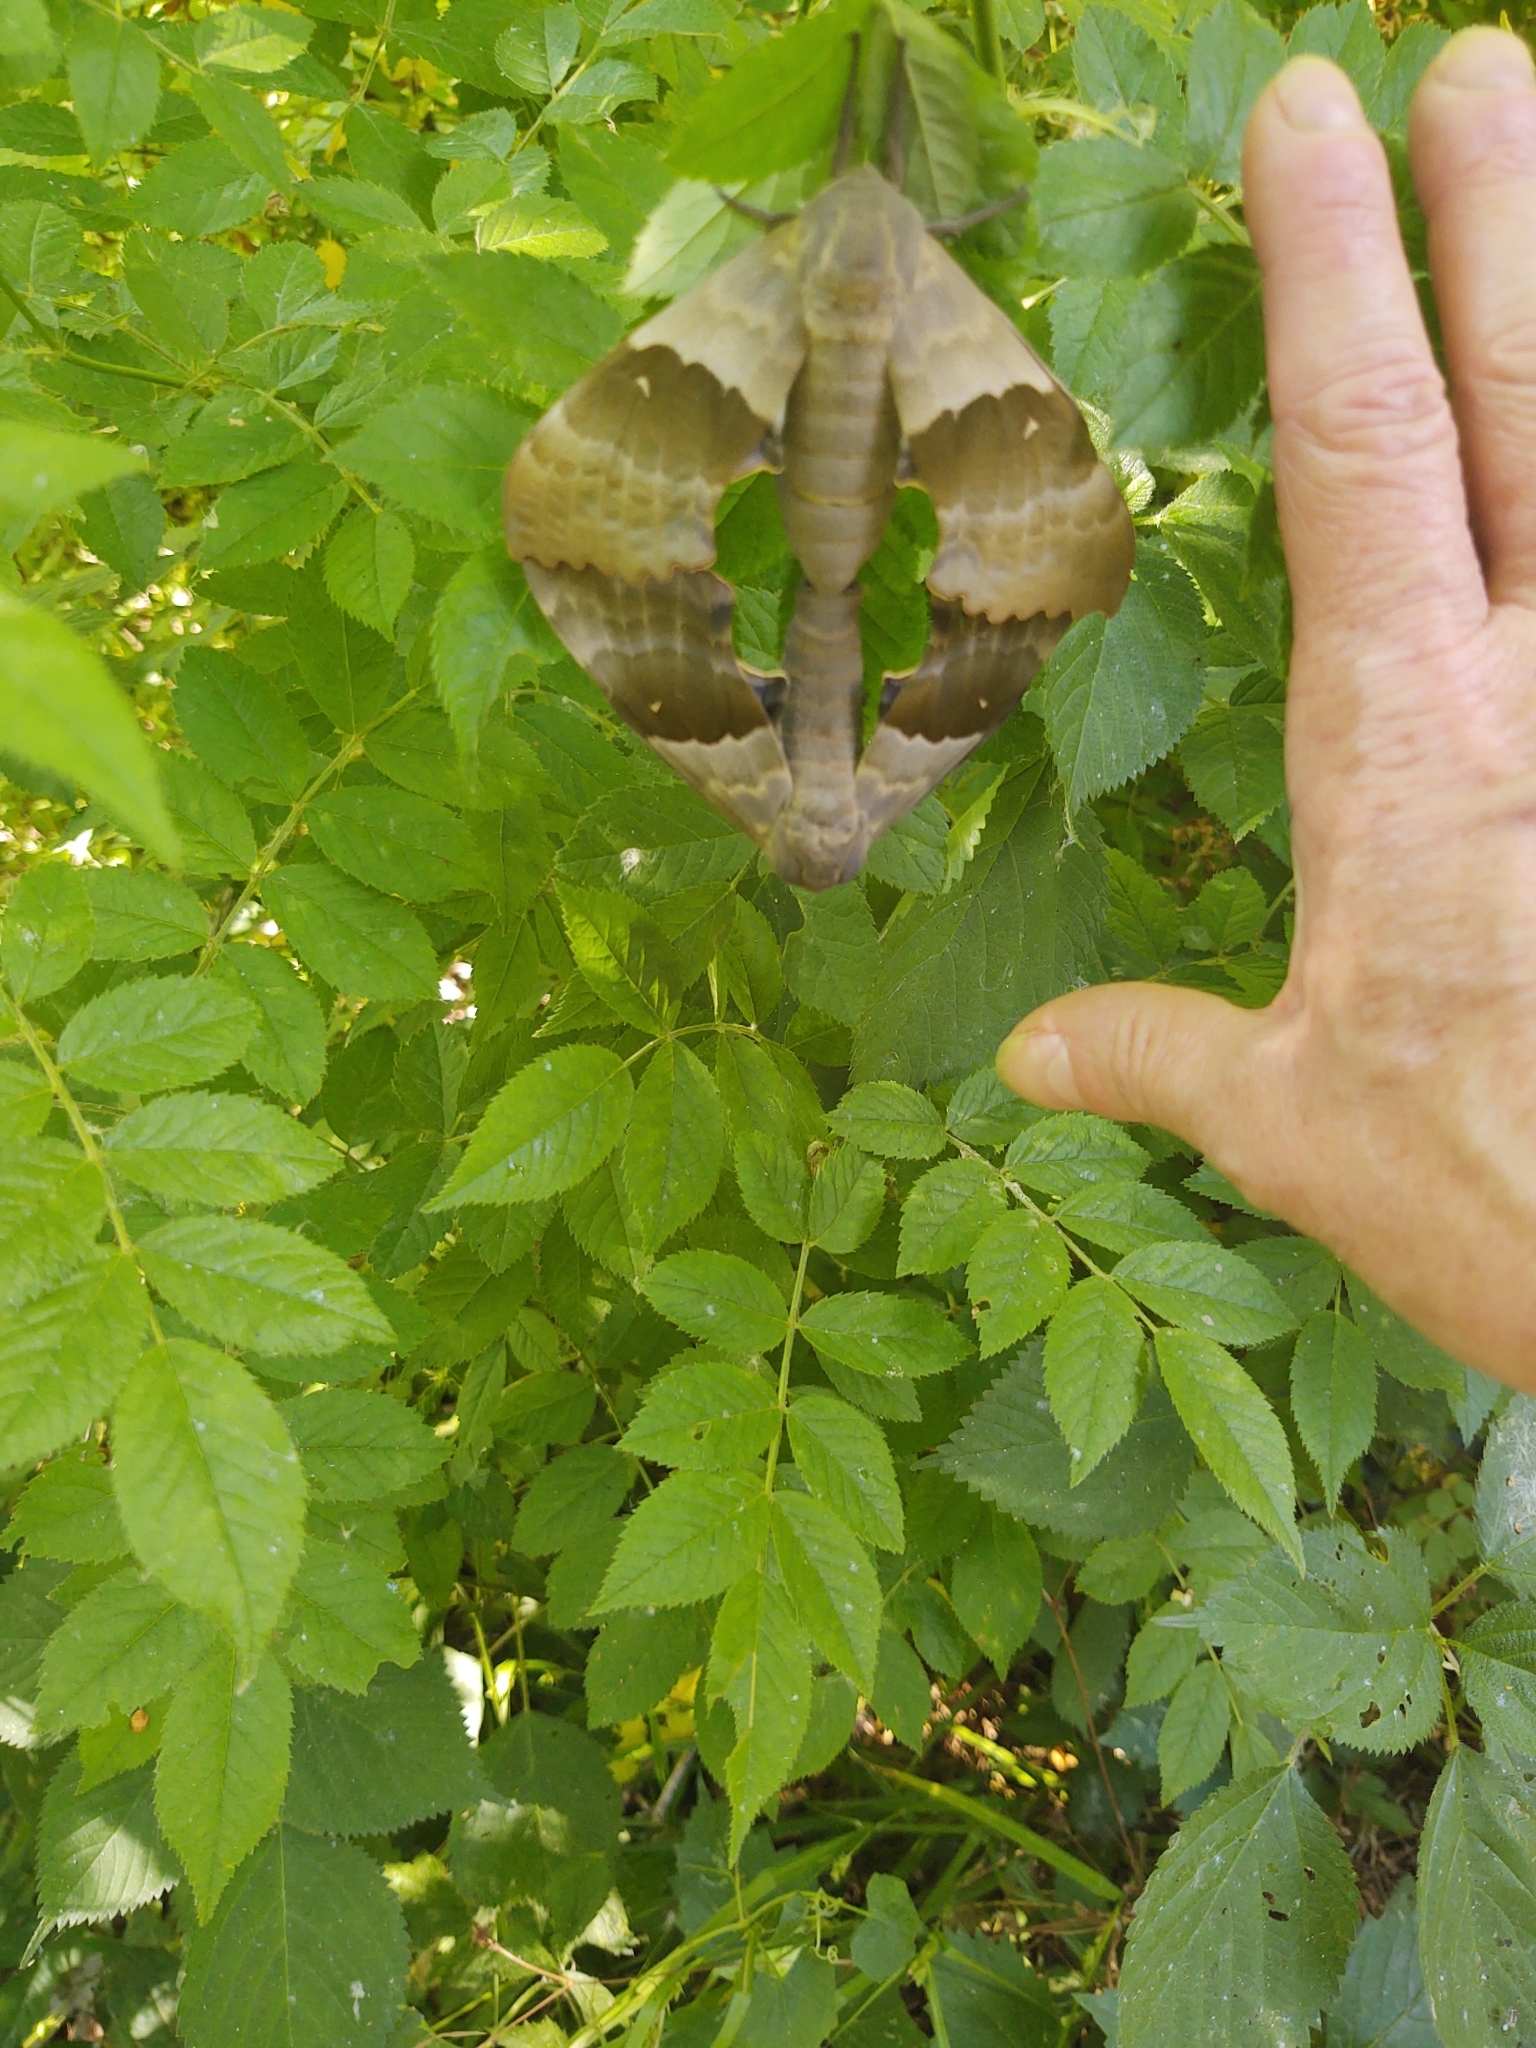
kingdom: Animalia
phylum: Arthropoda
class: Insecta
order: Lepidoptera
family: Sphingidae
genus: Pachysphinx
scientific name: Pachysphinx modesta
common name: Big poplar sphinx
